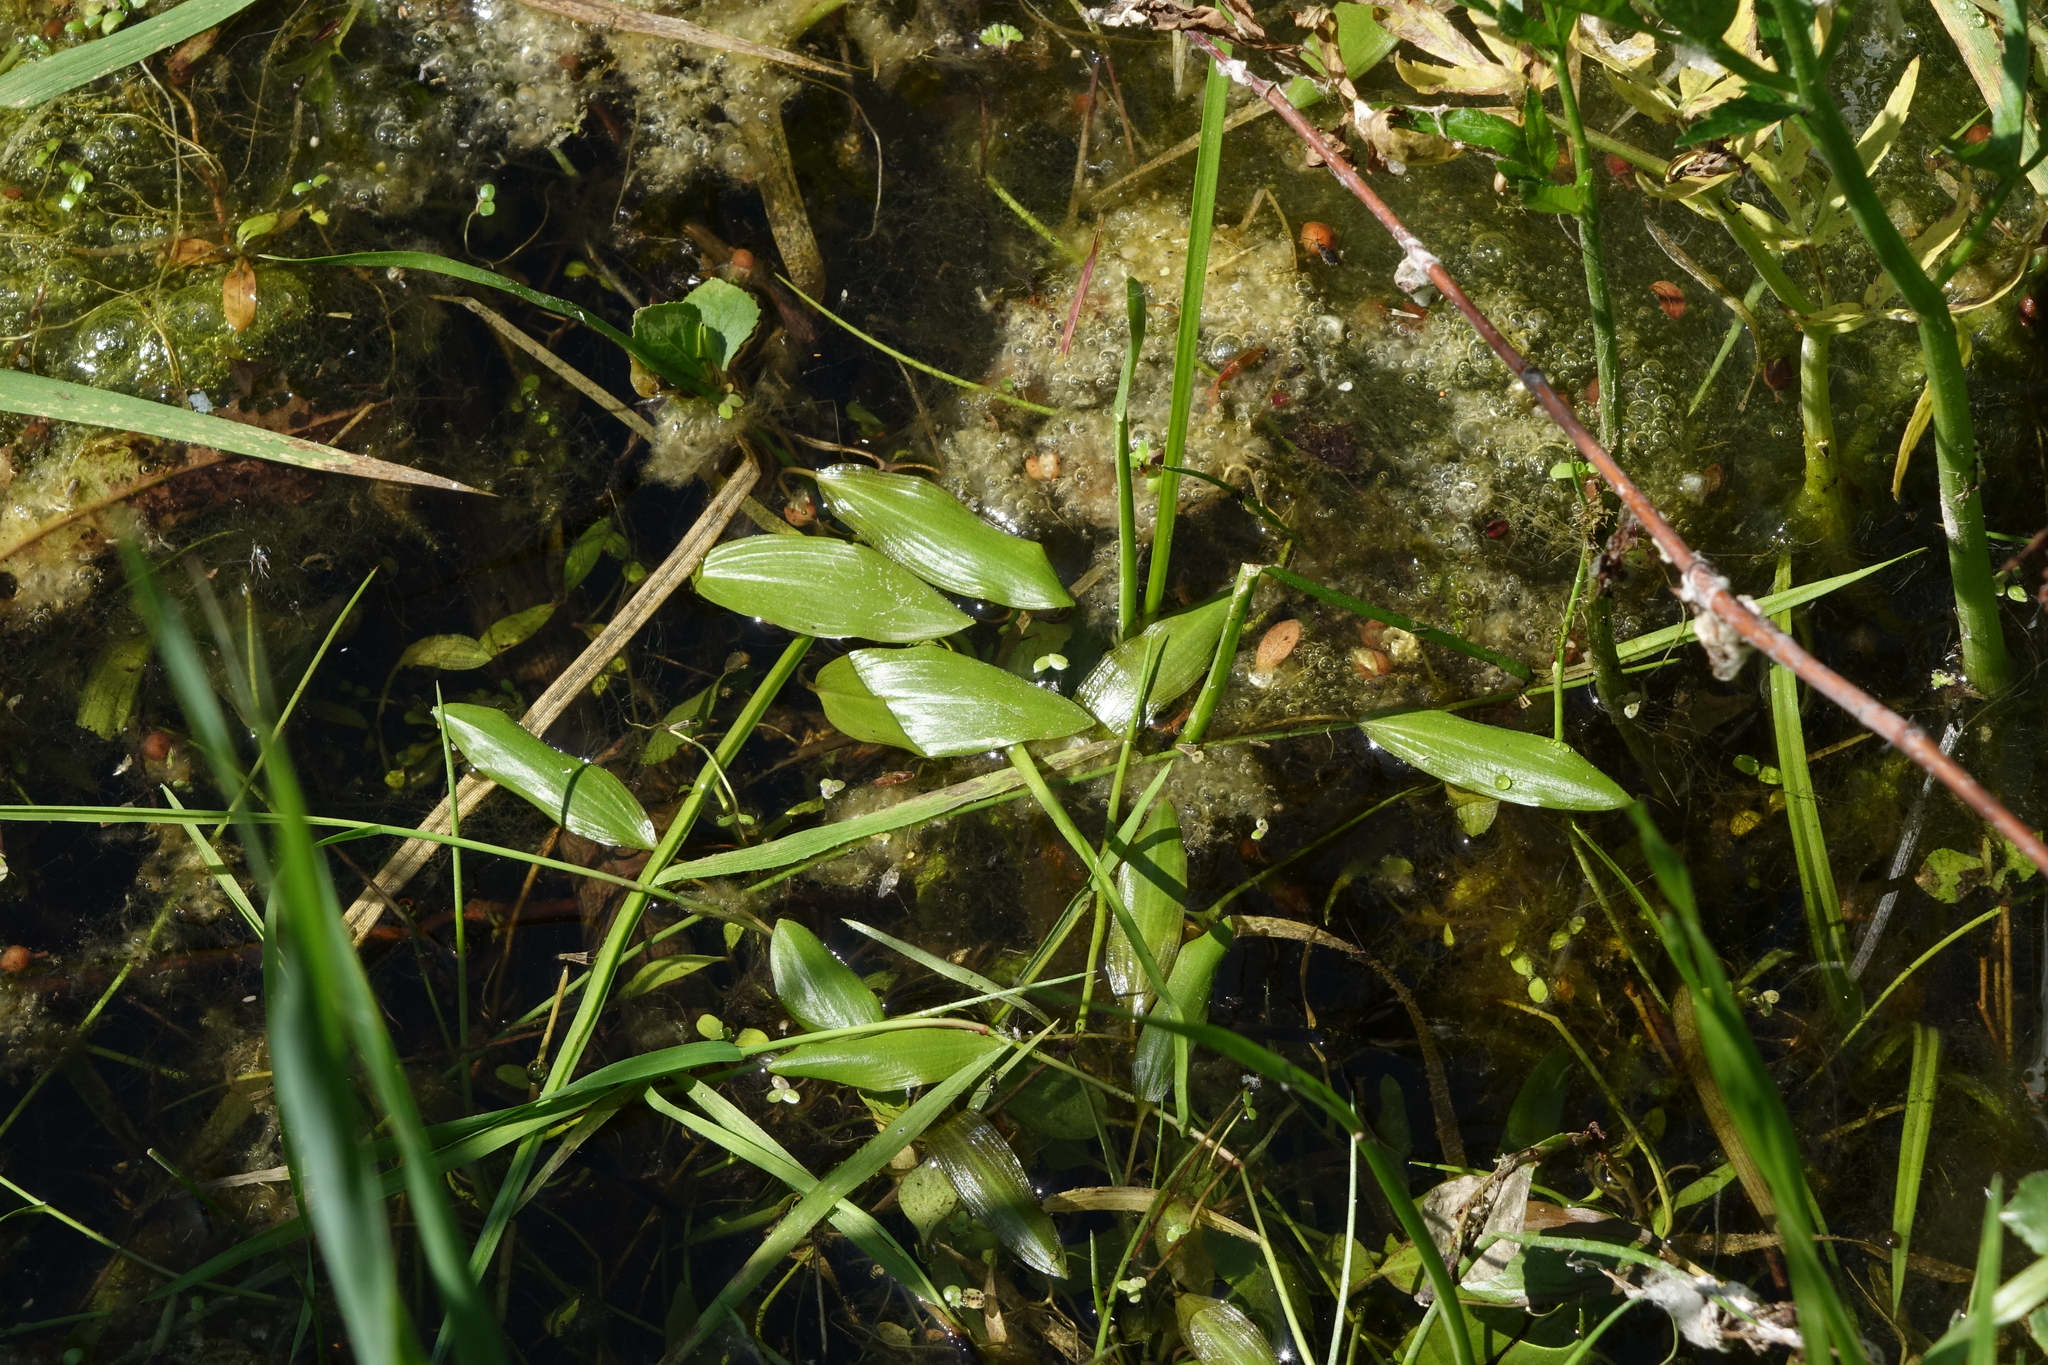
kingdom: Plantae
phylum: Tracheophyta
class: Liliopsida
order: Alismatales
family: Potamogetonaceae
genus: Potamogeton
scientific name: Potamogeton alpinus
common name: Red pondweed
